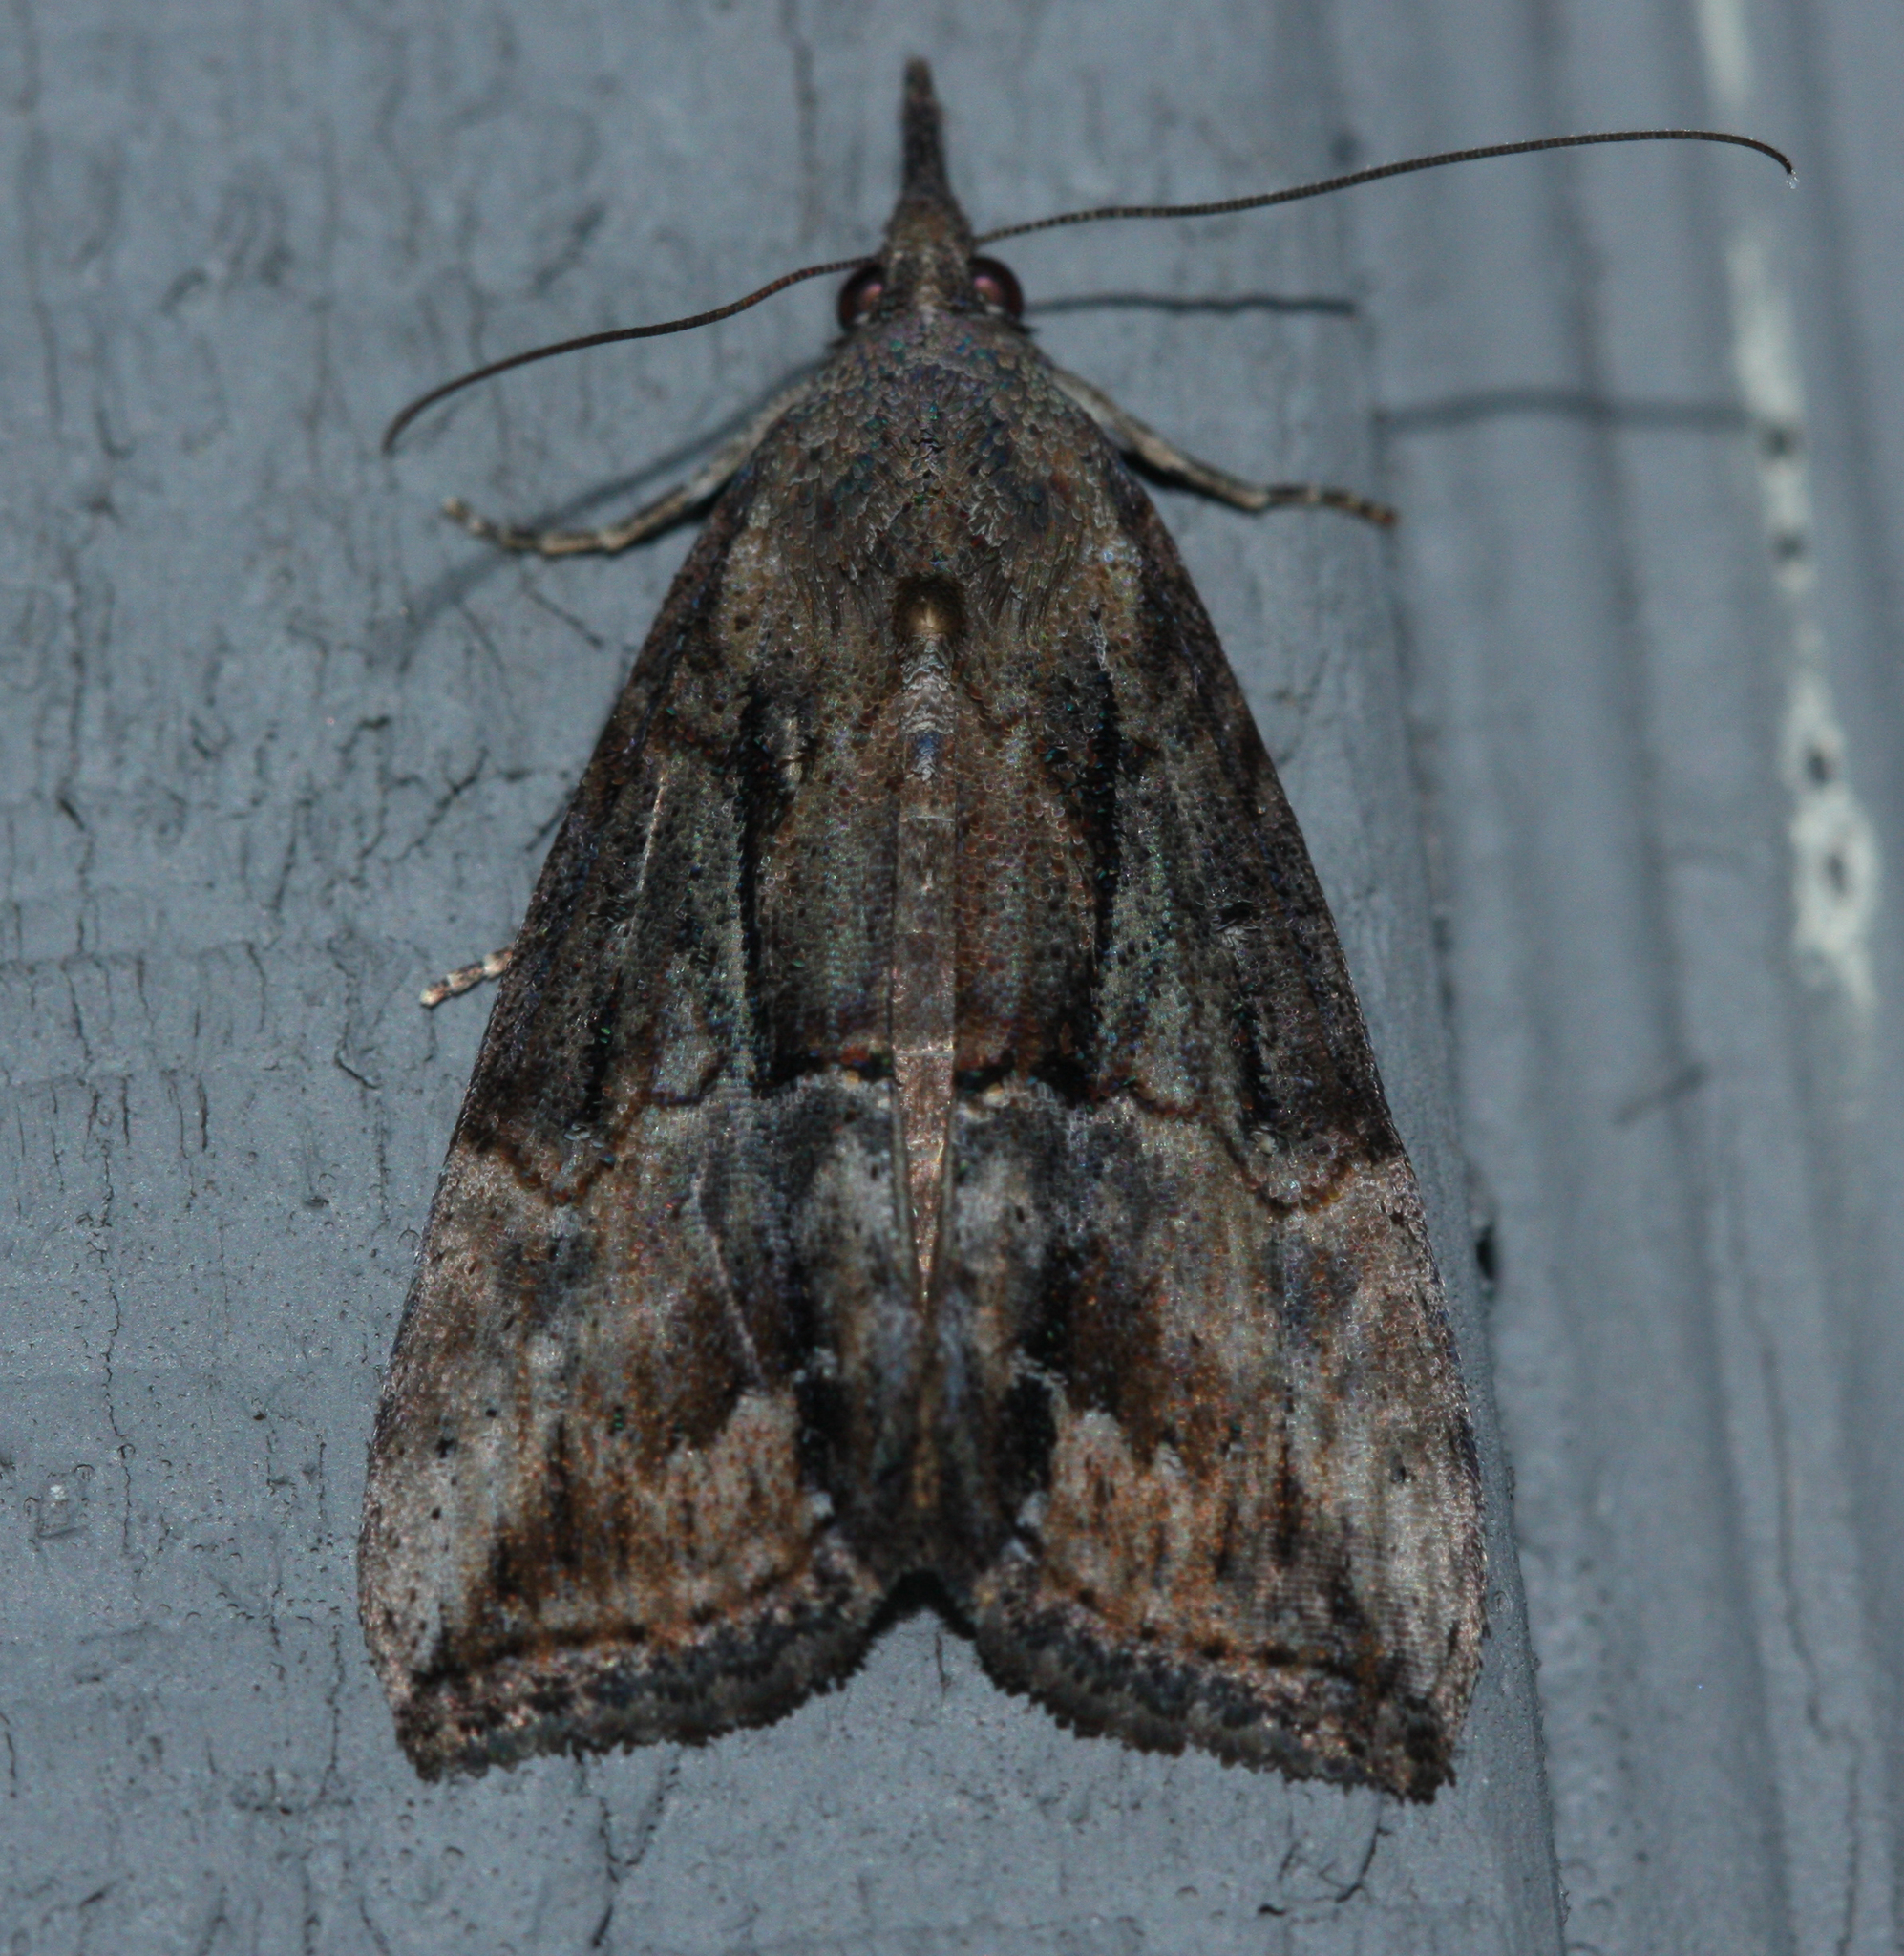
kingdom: Animalia
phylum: Arthropoda
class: Insecta
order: Lepidoptera
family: Erebidae
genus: Hypena
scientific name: Hypena scabra
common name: Green cloverworm
